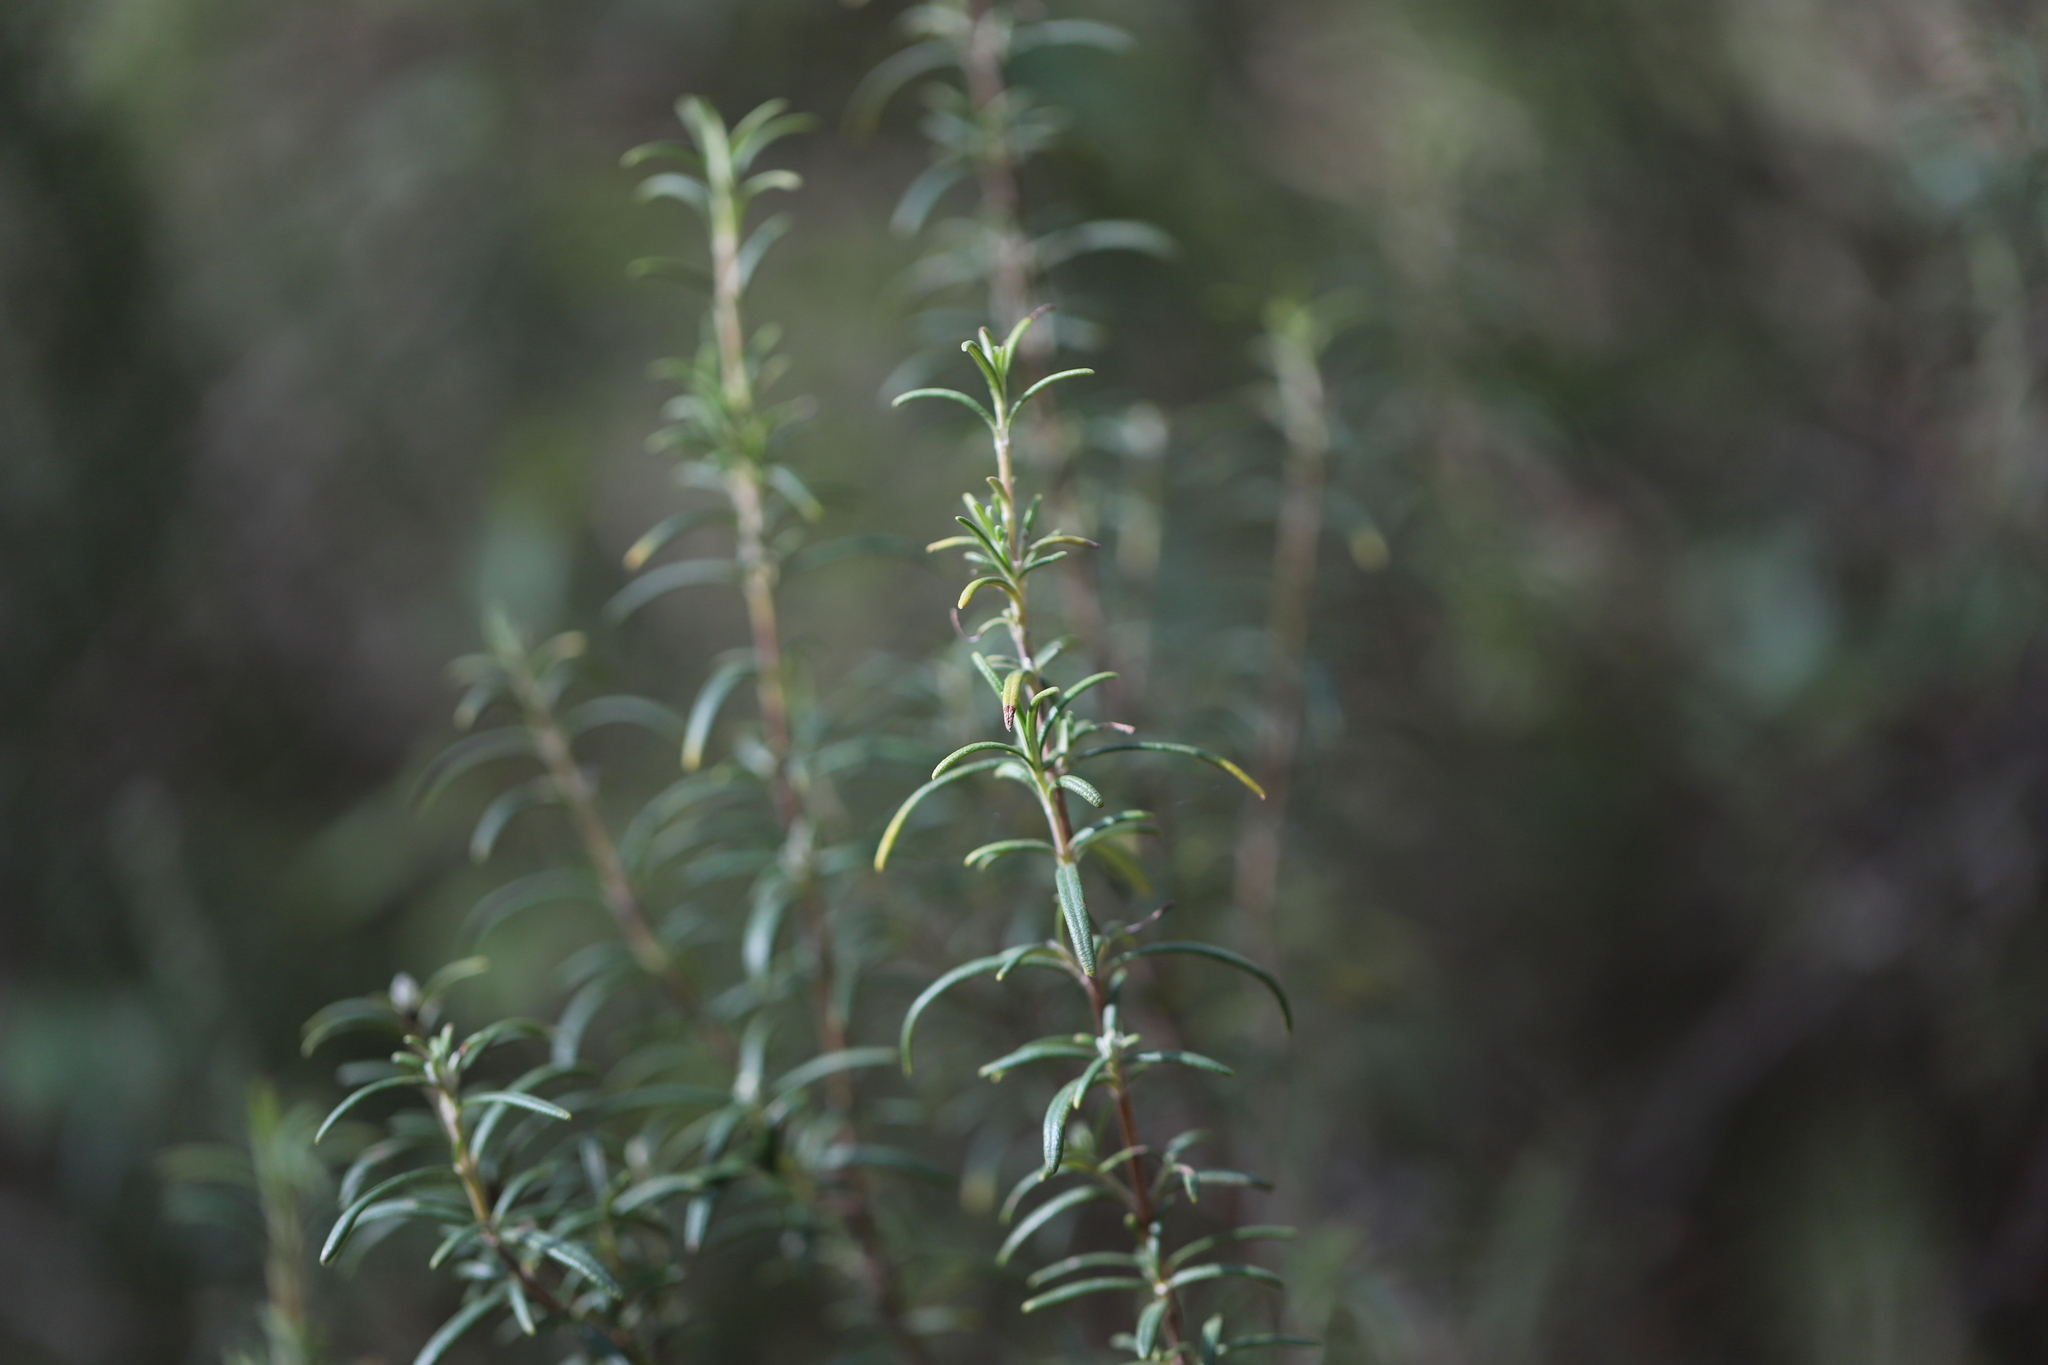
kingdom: Plantae
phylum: Tracheophyta
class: Magnoliopsida
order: Lamiales
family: Lamiaceae
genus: Salvia
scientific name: Salvia rosmarinus
